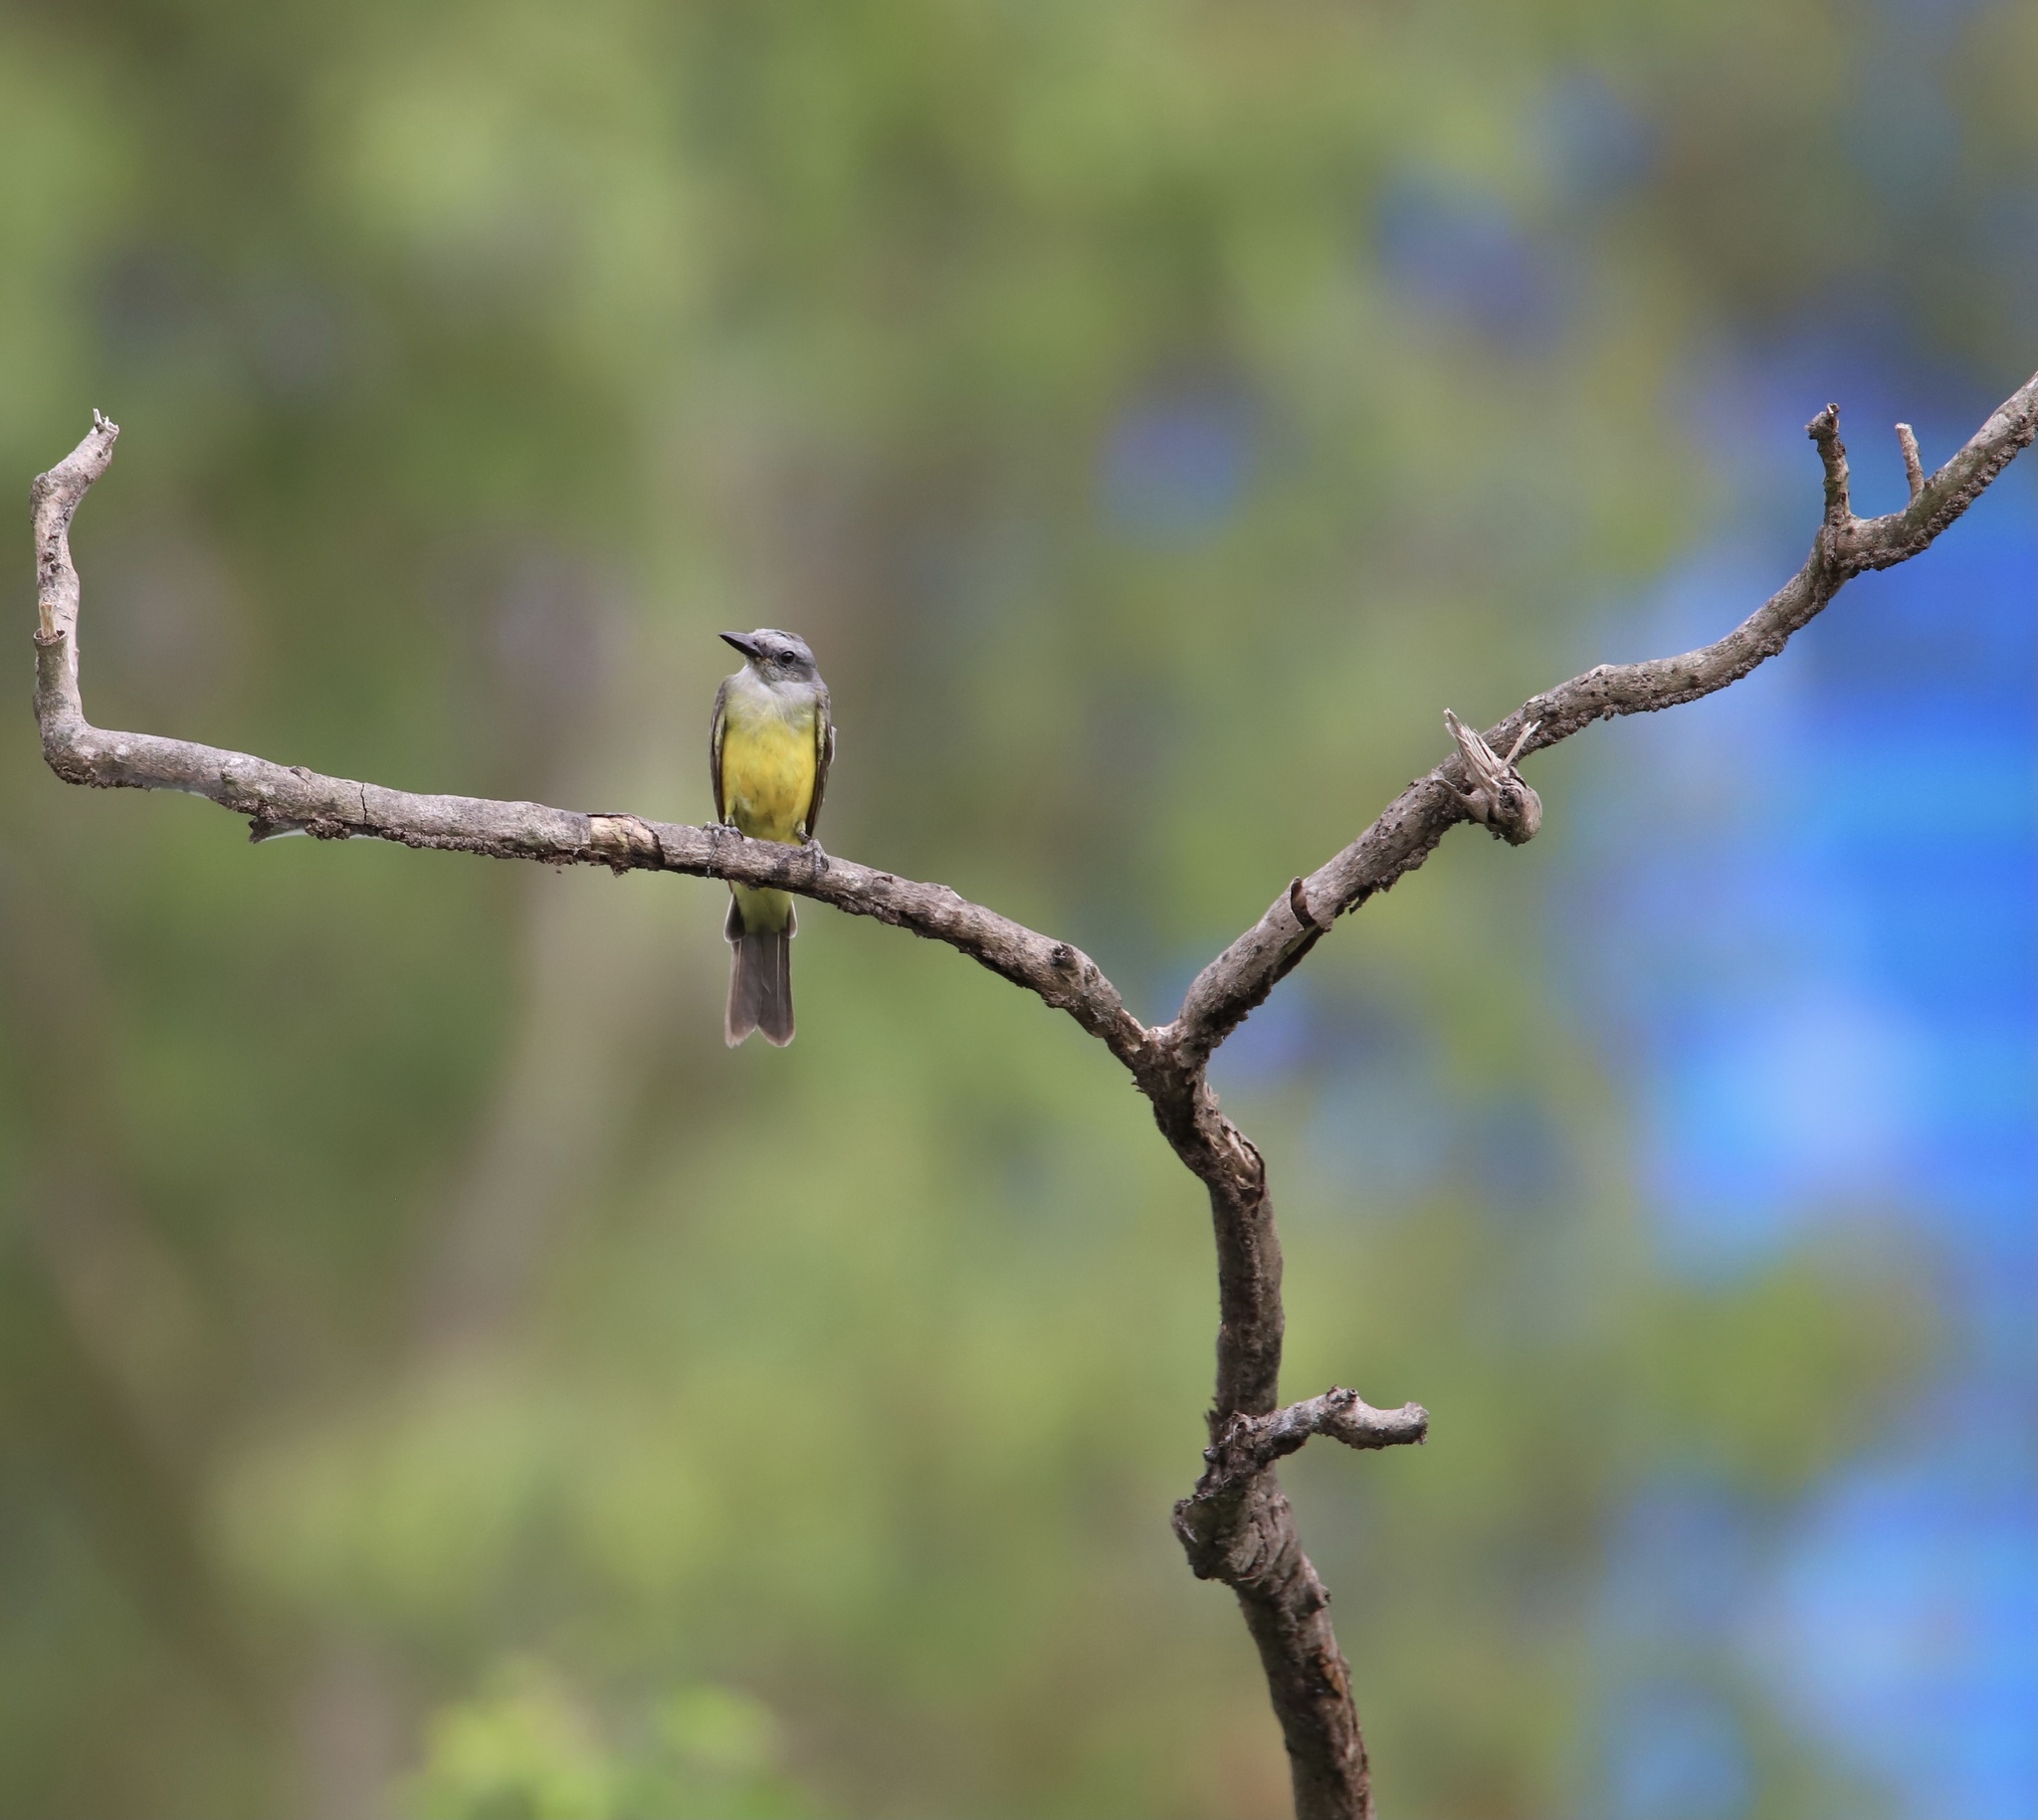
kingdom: Animalia
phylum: Chordata
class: Aves
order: Passeriformes
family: Tyrannidae
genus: Tyrannus
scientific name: Tyrannus melancholicus
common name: Tropical kingbird
